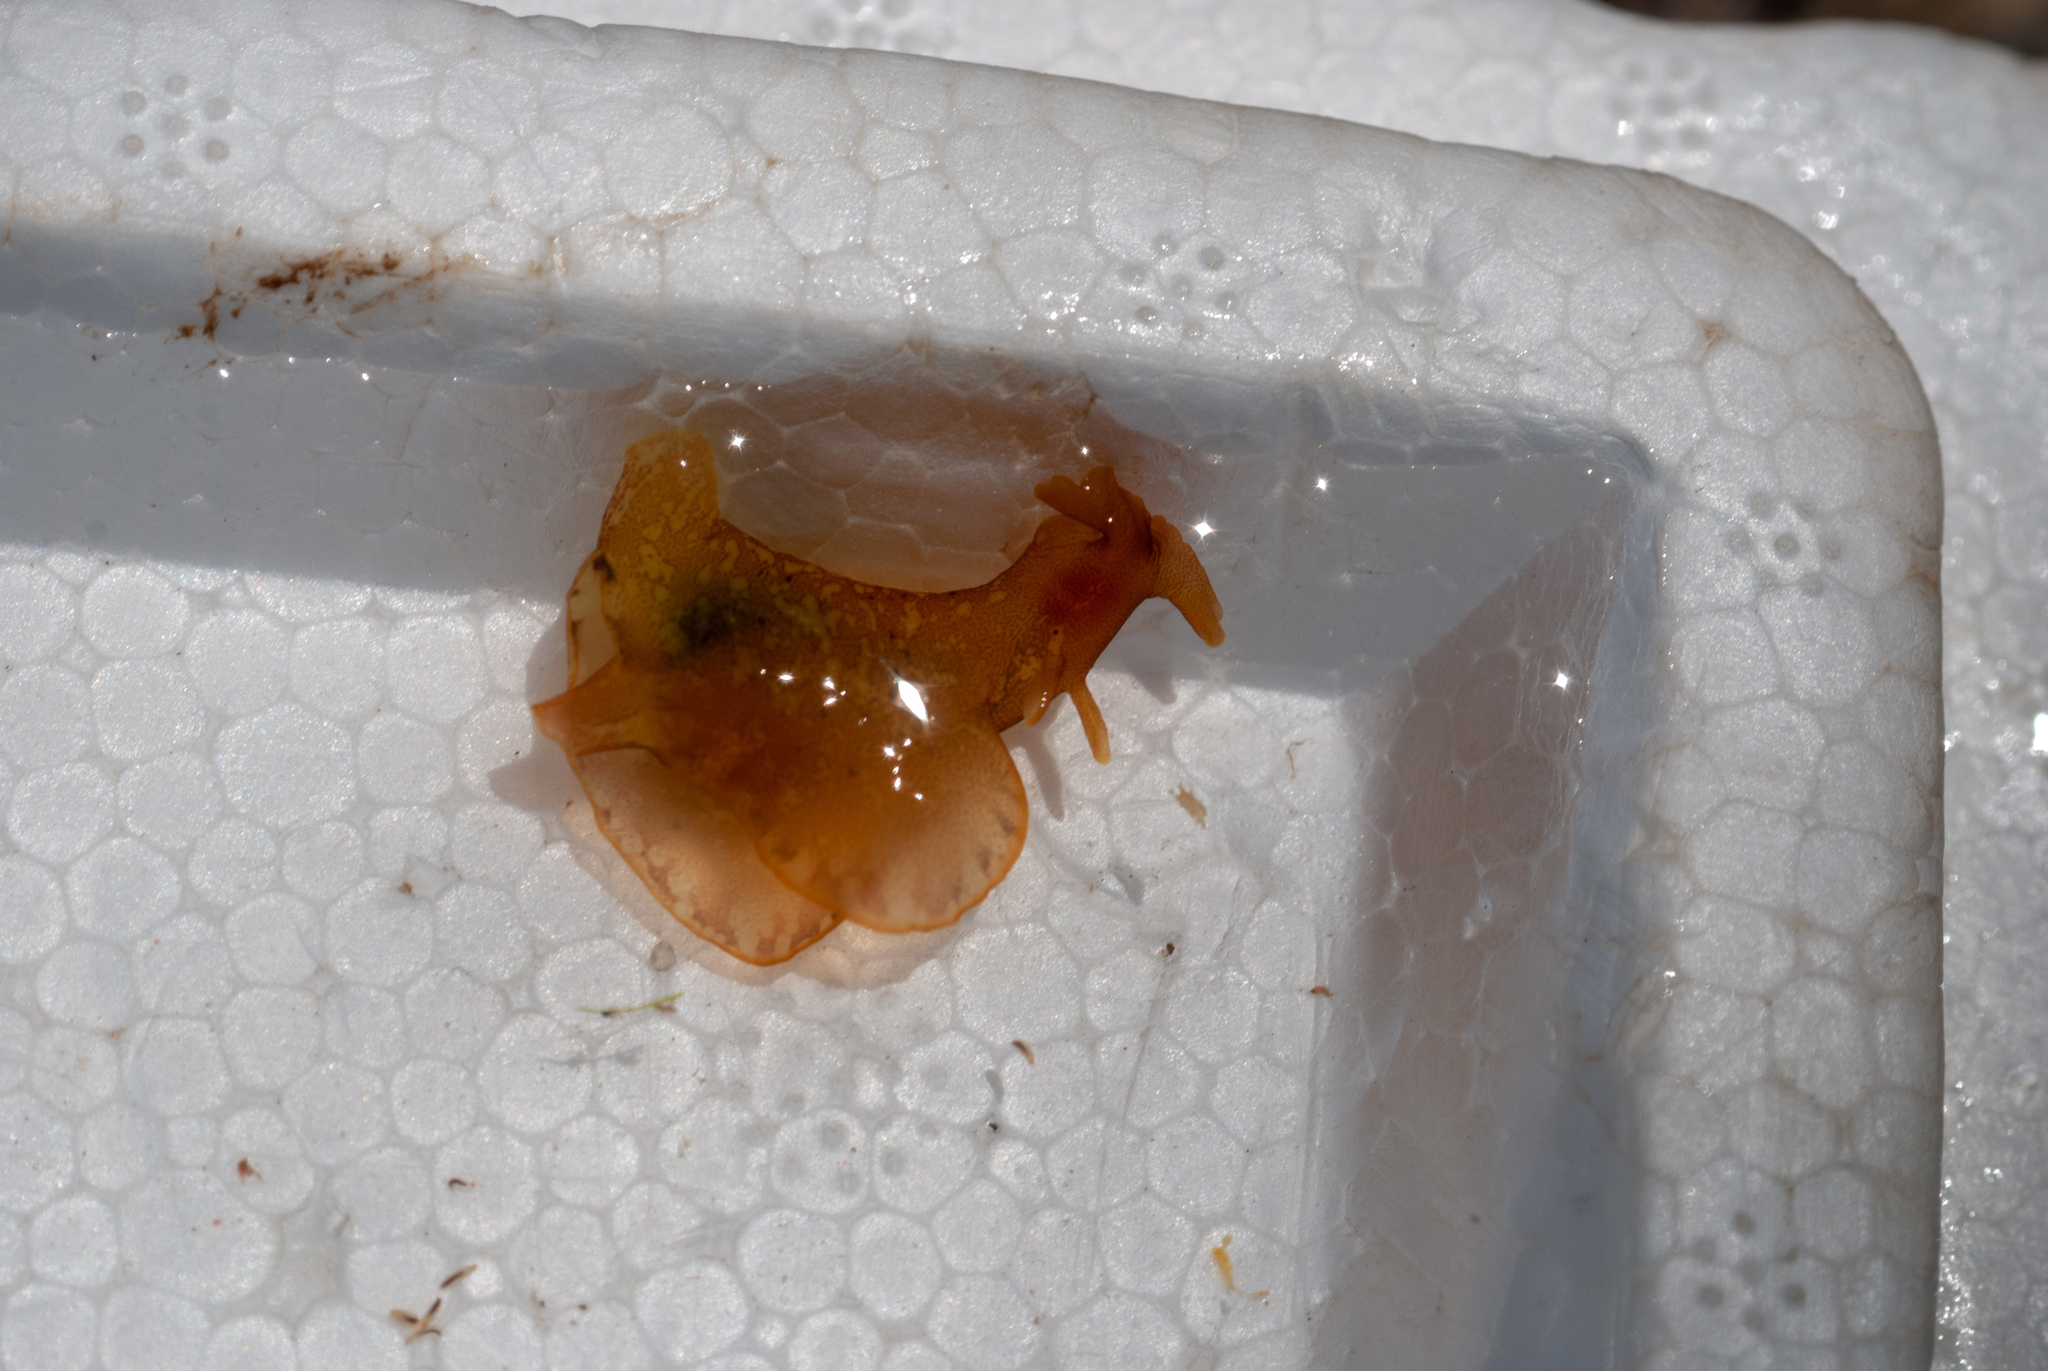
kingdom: Animalia
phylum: Mollusca
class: Gastropoda
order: Aplysiida
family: Aplysiidae
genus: Aplysia
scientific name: Aplysia brasiliana
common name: Mottled seahare
